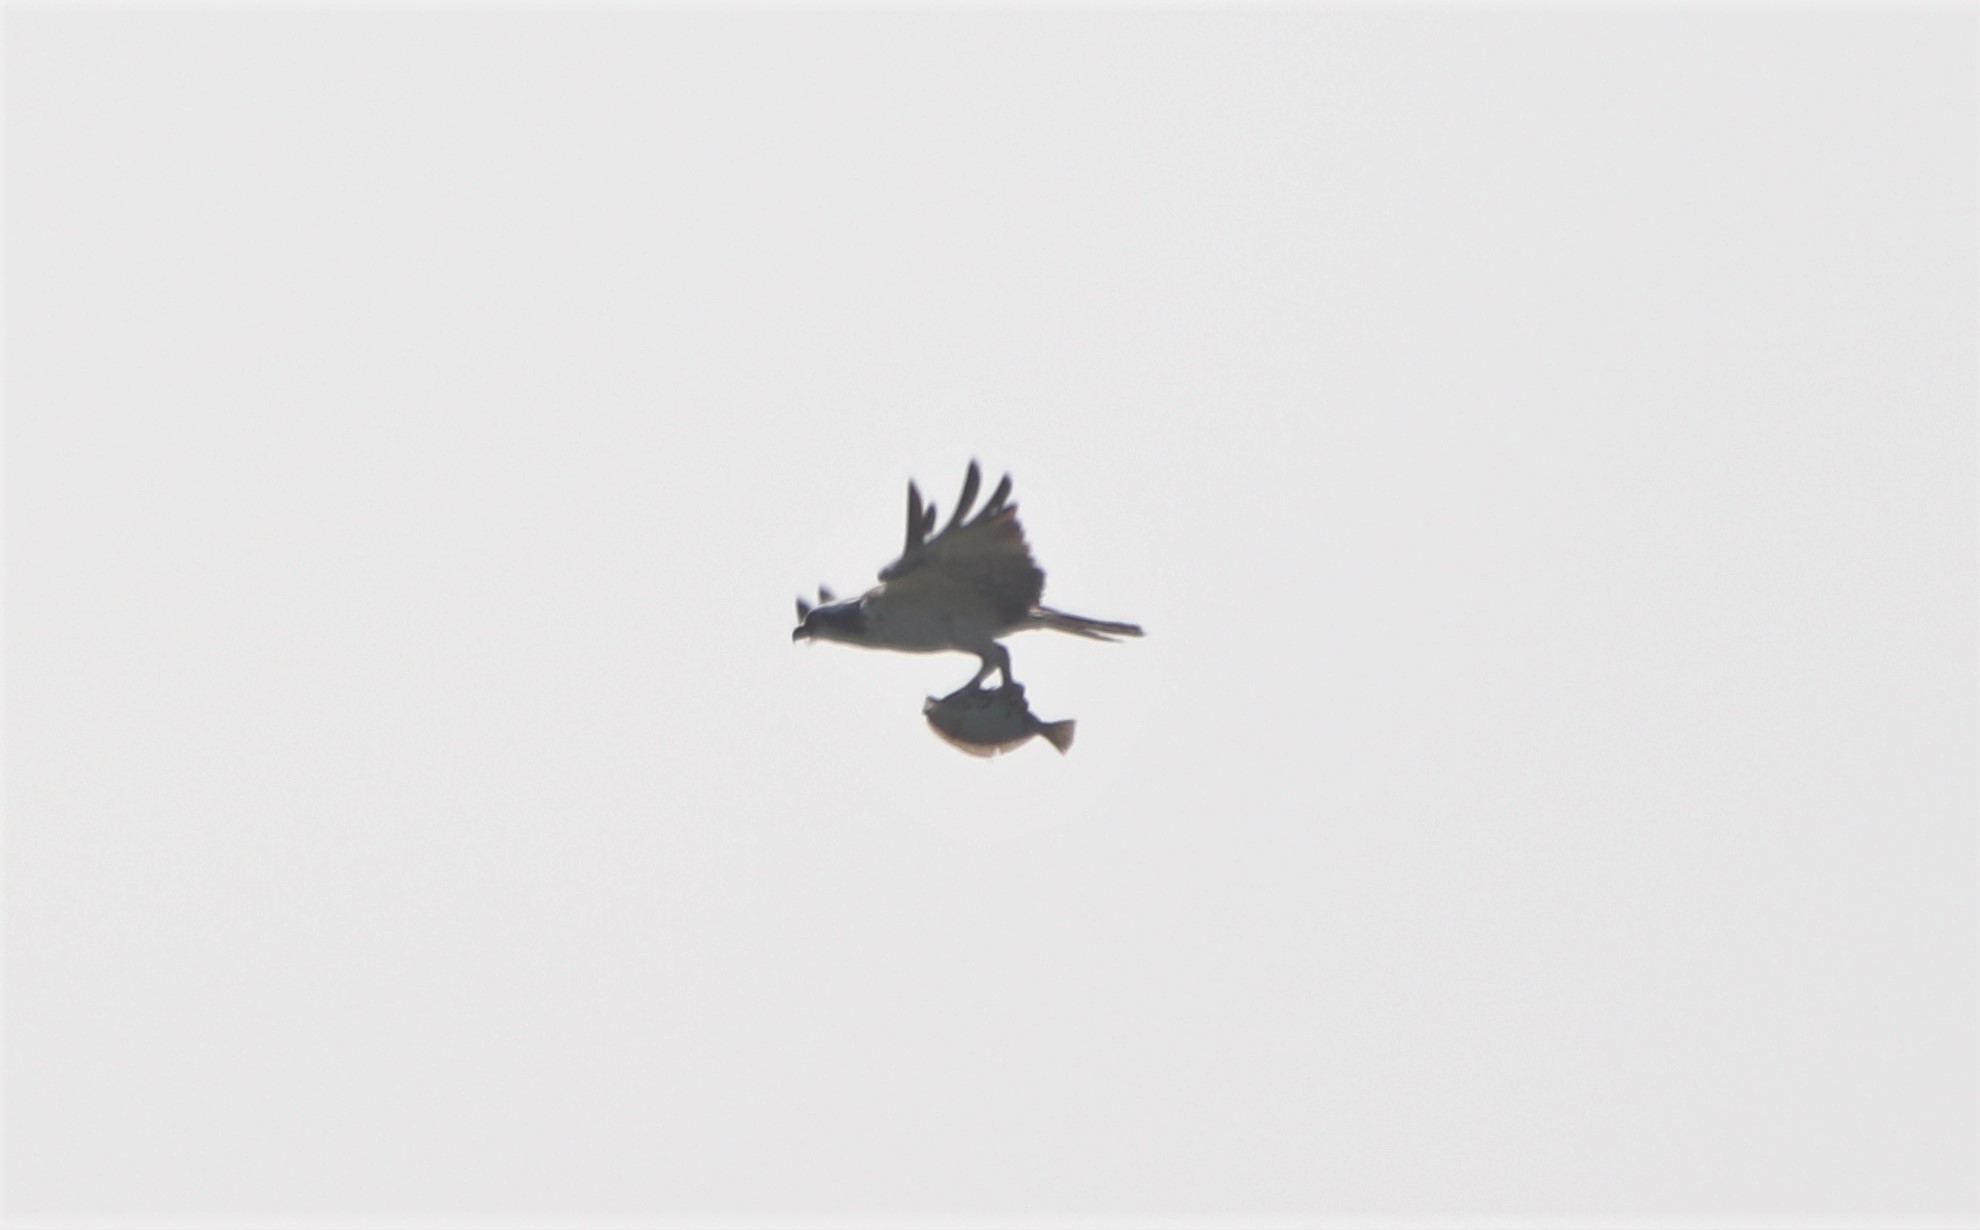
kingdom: Animalia
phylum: Chordata
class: Aves
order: Accipitriformes
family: Pandionidae
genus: Pandion
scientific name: Pandion haliaetus
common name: Osprey
